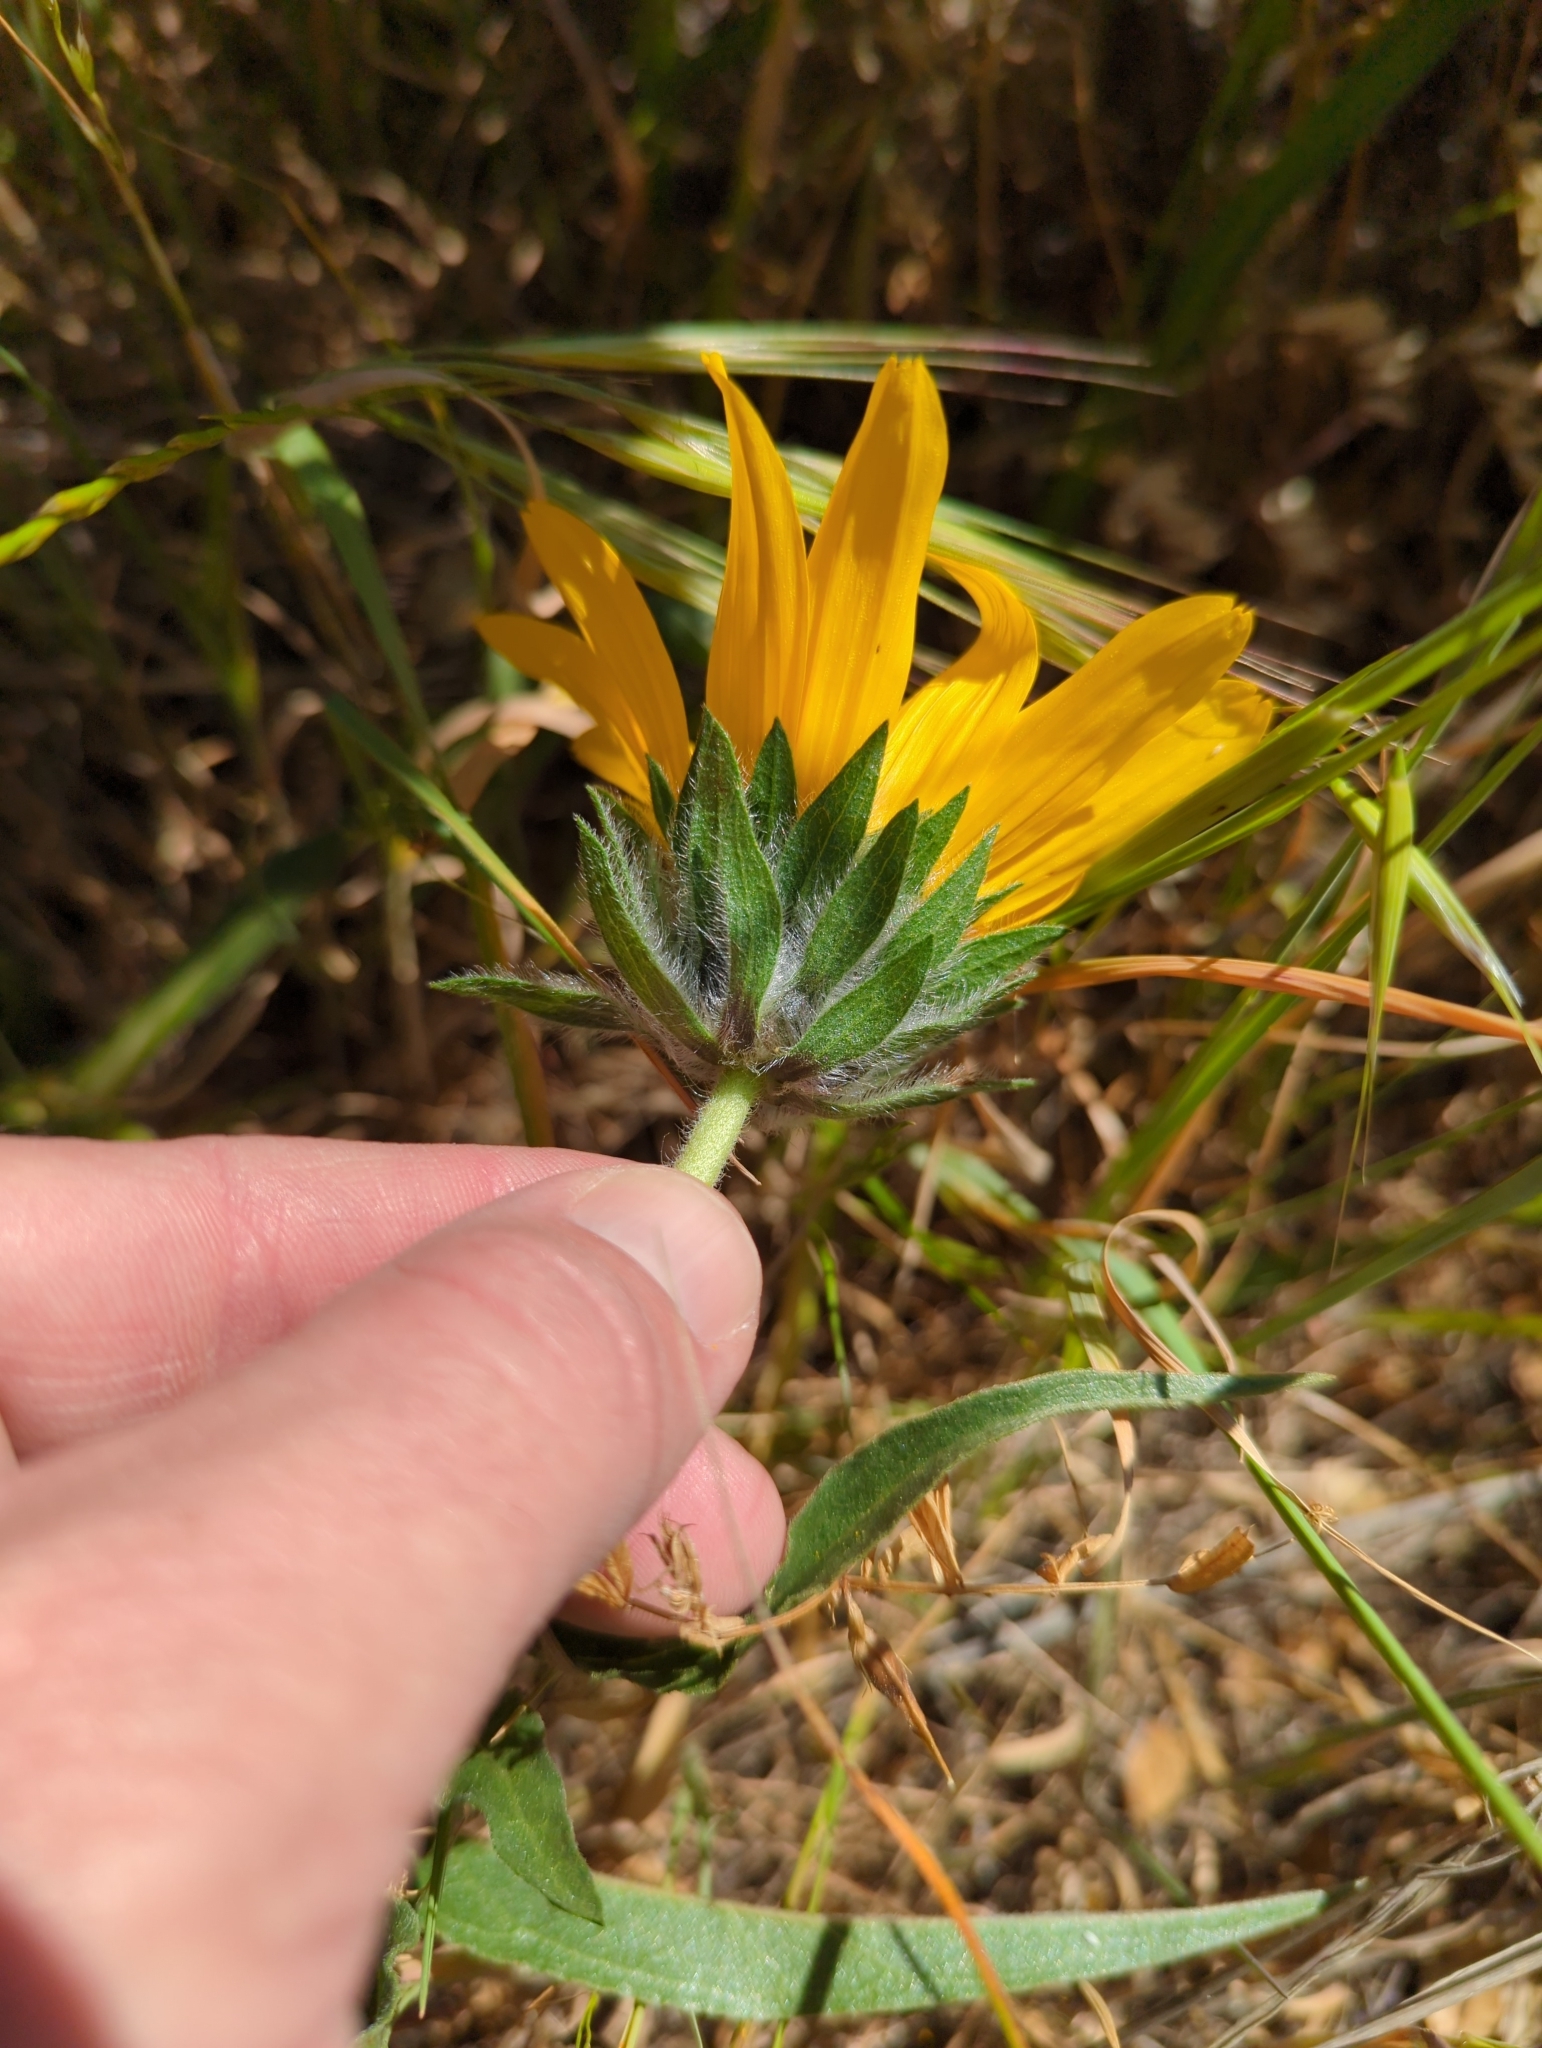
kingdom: Plantae
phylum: Tracheophyta
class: Magnoliopsida
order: Asterales
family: Asteraceae
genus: Wyethia
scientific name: Wyethia angustifolia
